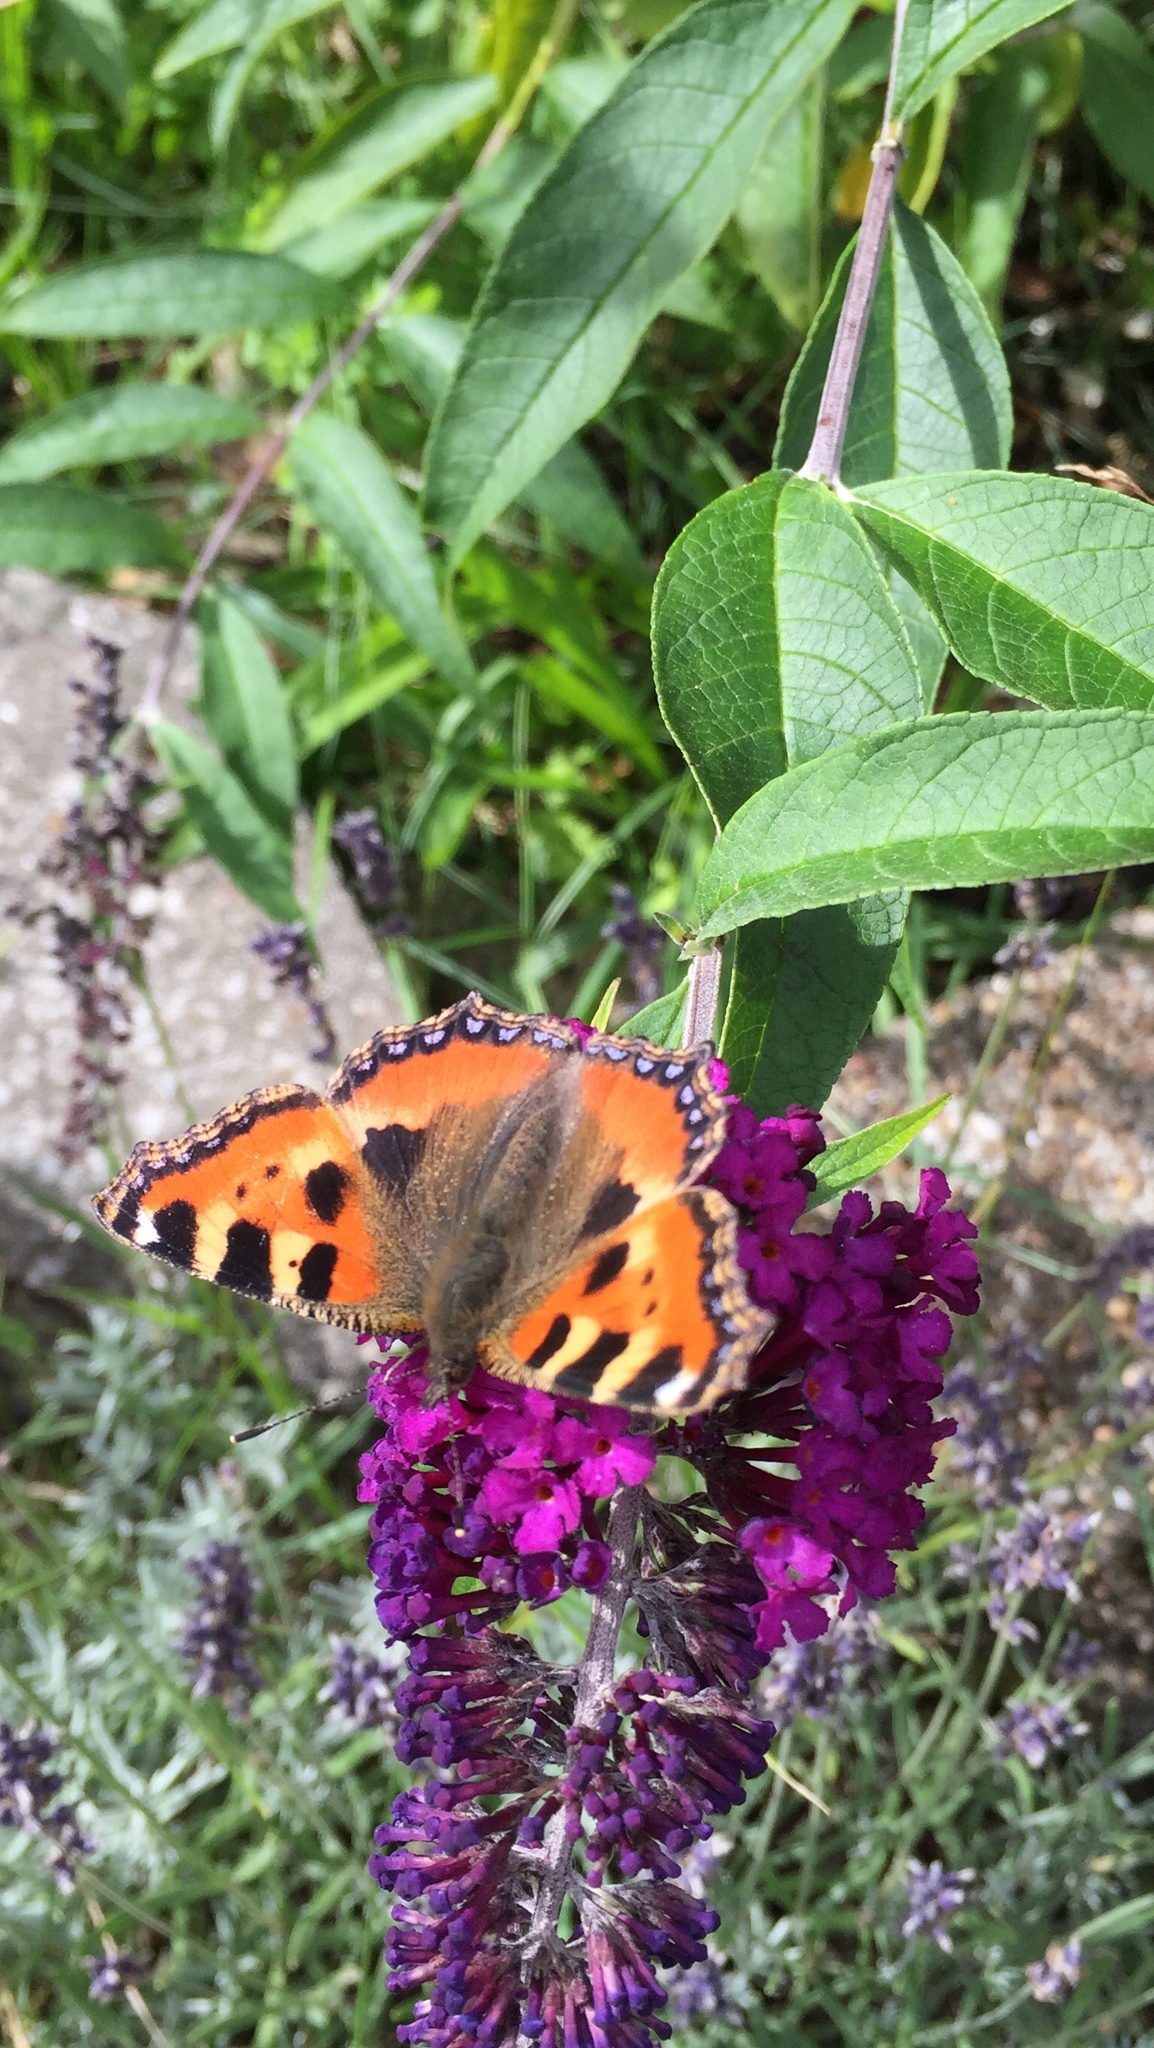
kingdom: Animalia
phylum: Arthropoda
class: Insecta
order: Lepidoptera
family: Nymphalidae
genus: Aglais
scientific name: Aglais urticae
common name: Small tortoiseshell
